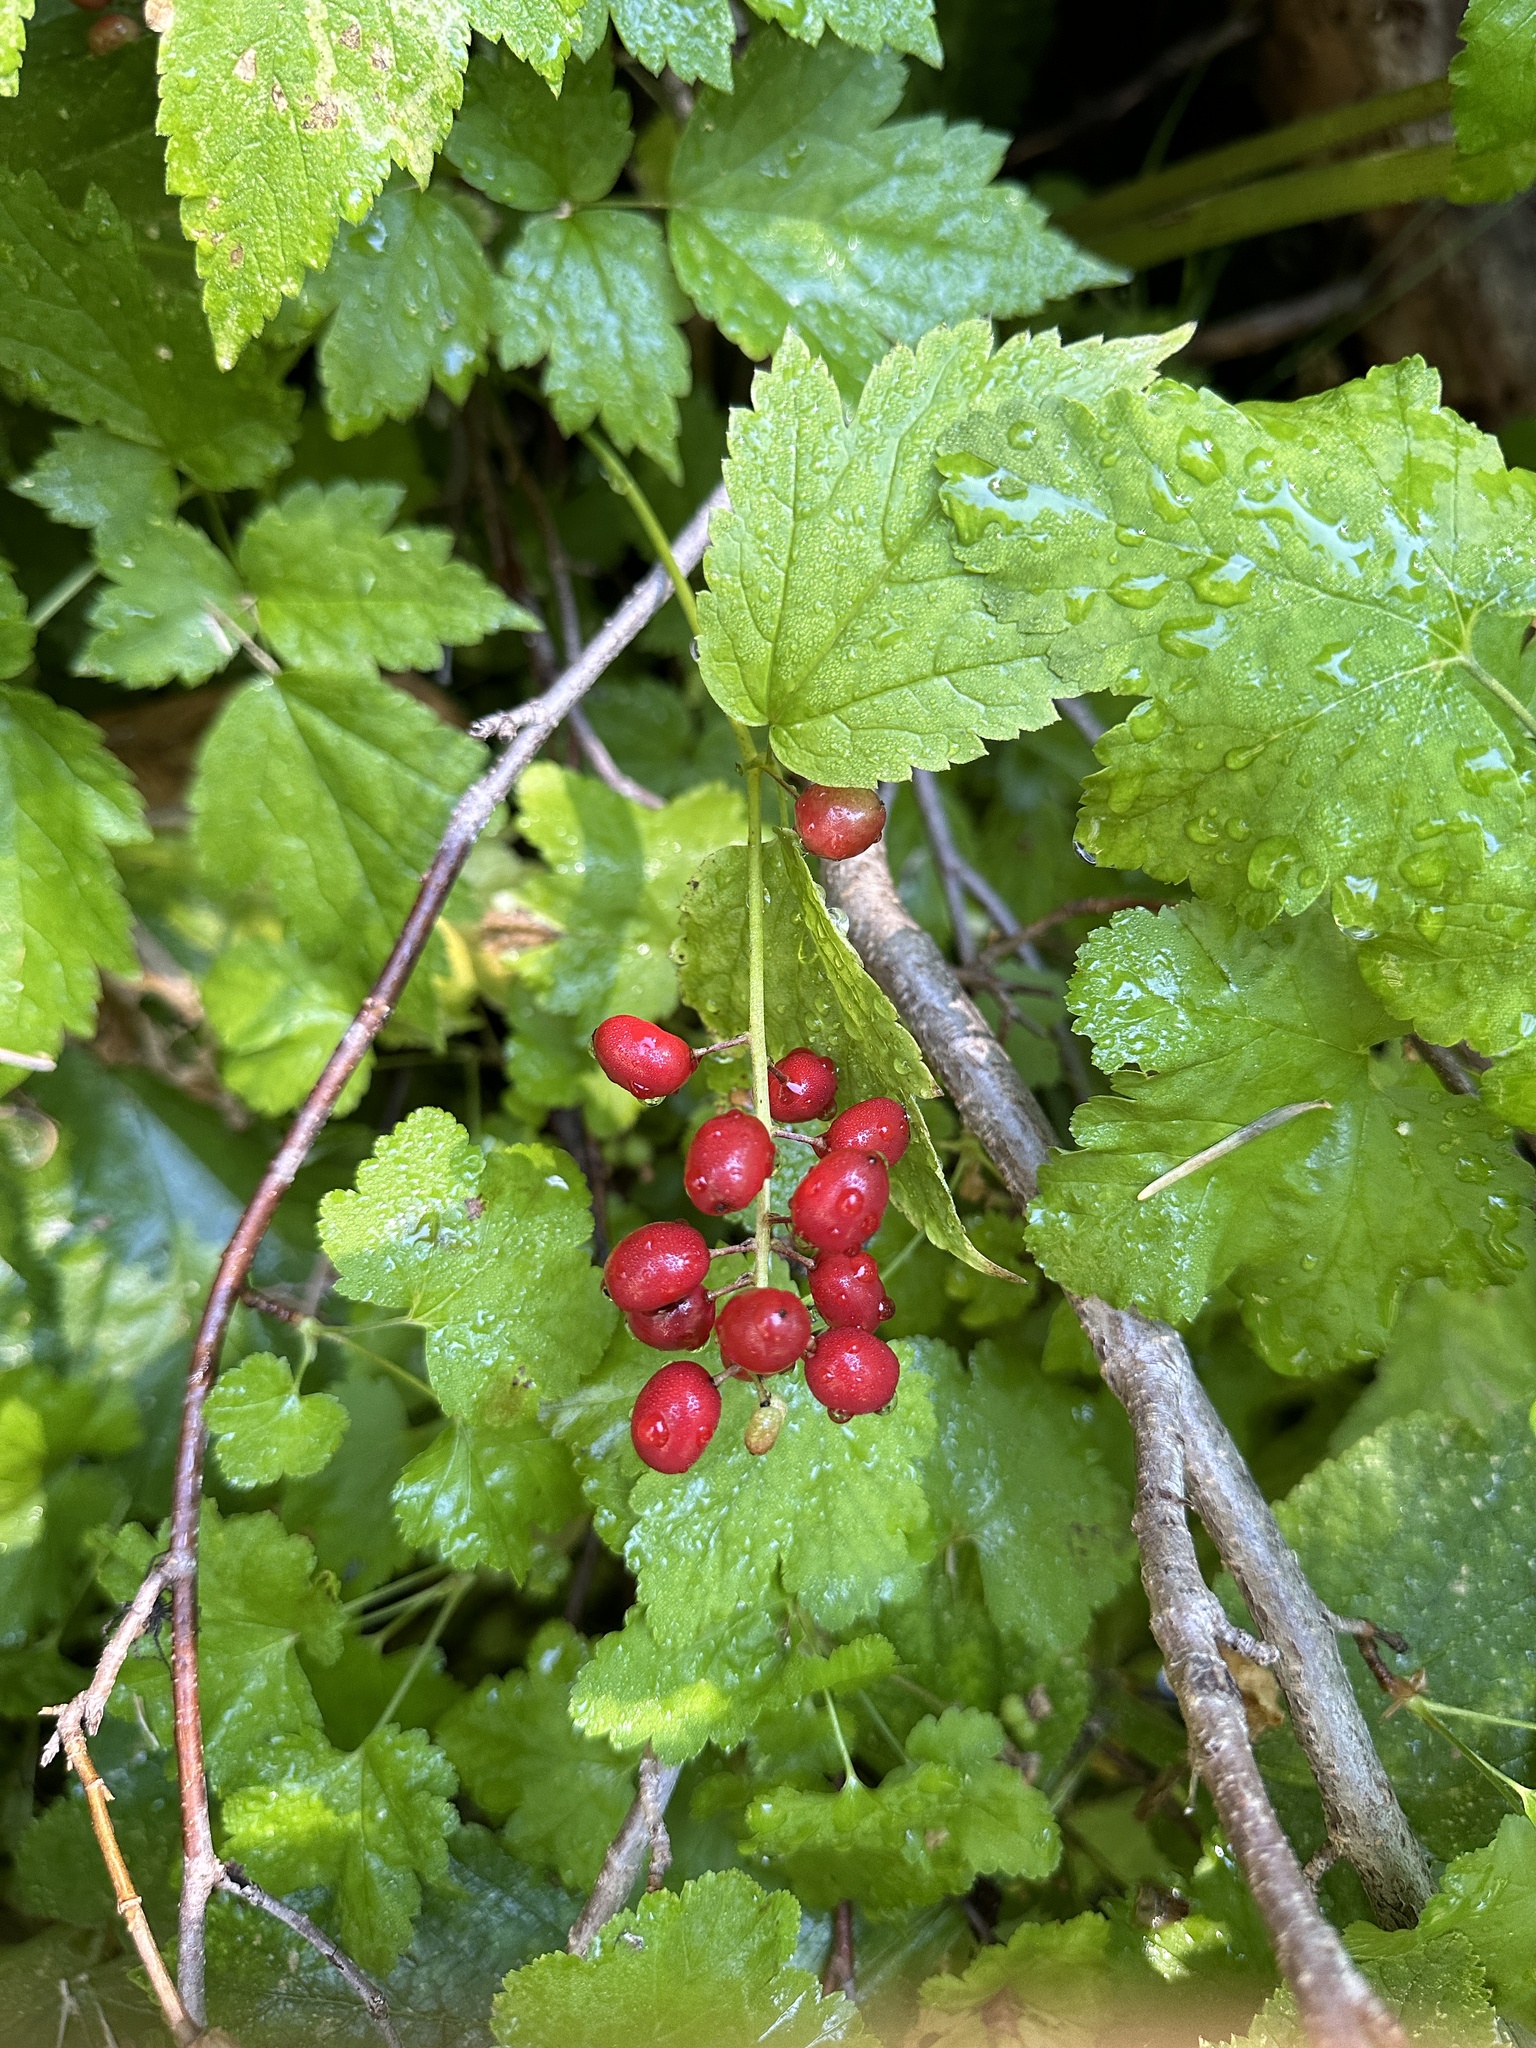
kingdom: Plantae
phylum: Tracheophyta
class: Magnoliopsida
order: Ranunculales
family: Ranunculaceae
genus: Actaea
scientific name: Actaea rubra
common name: Red baneberry
